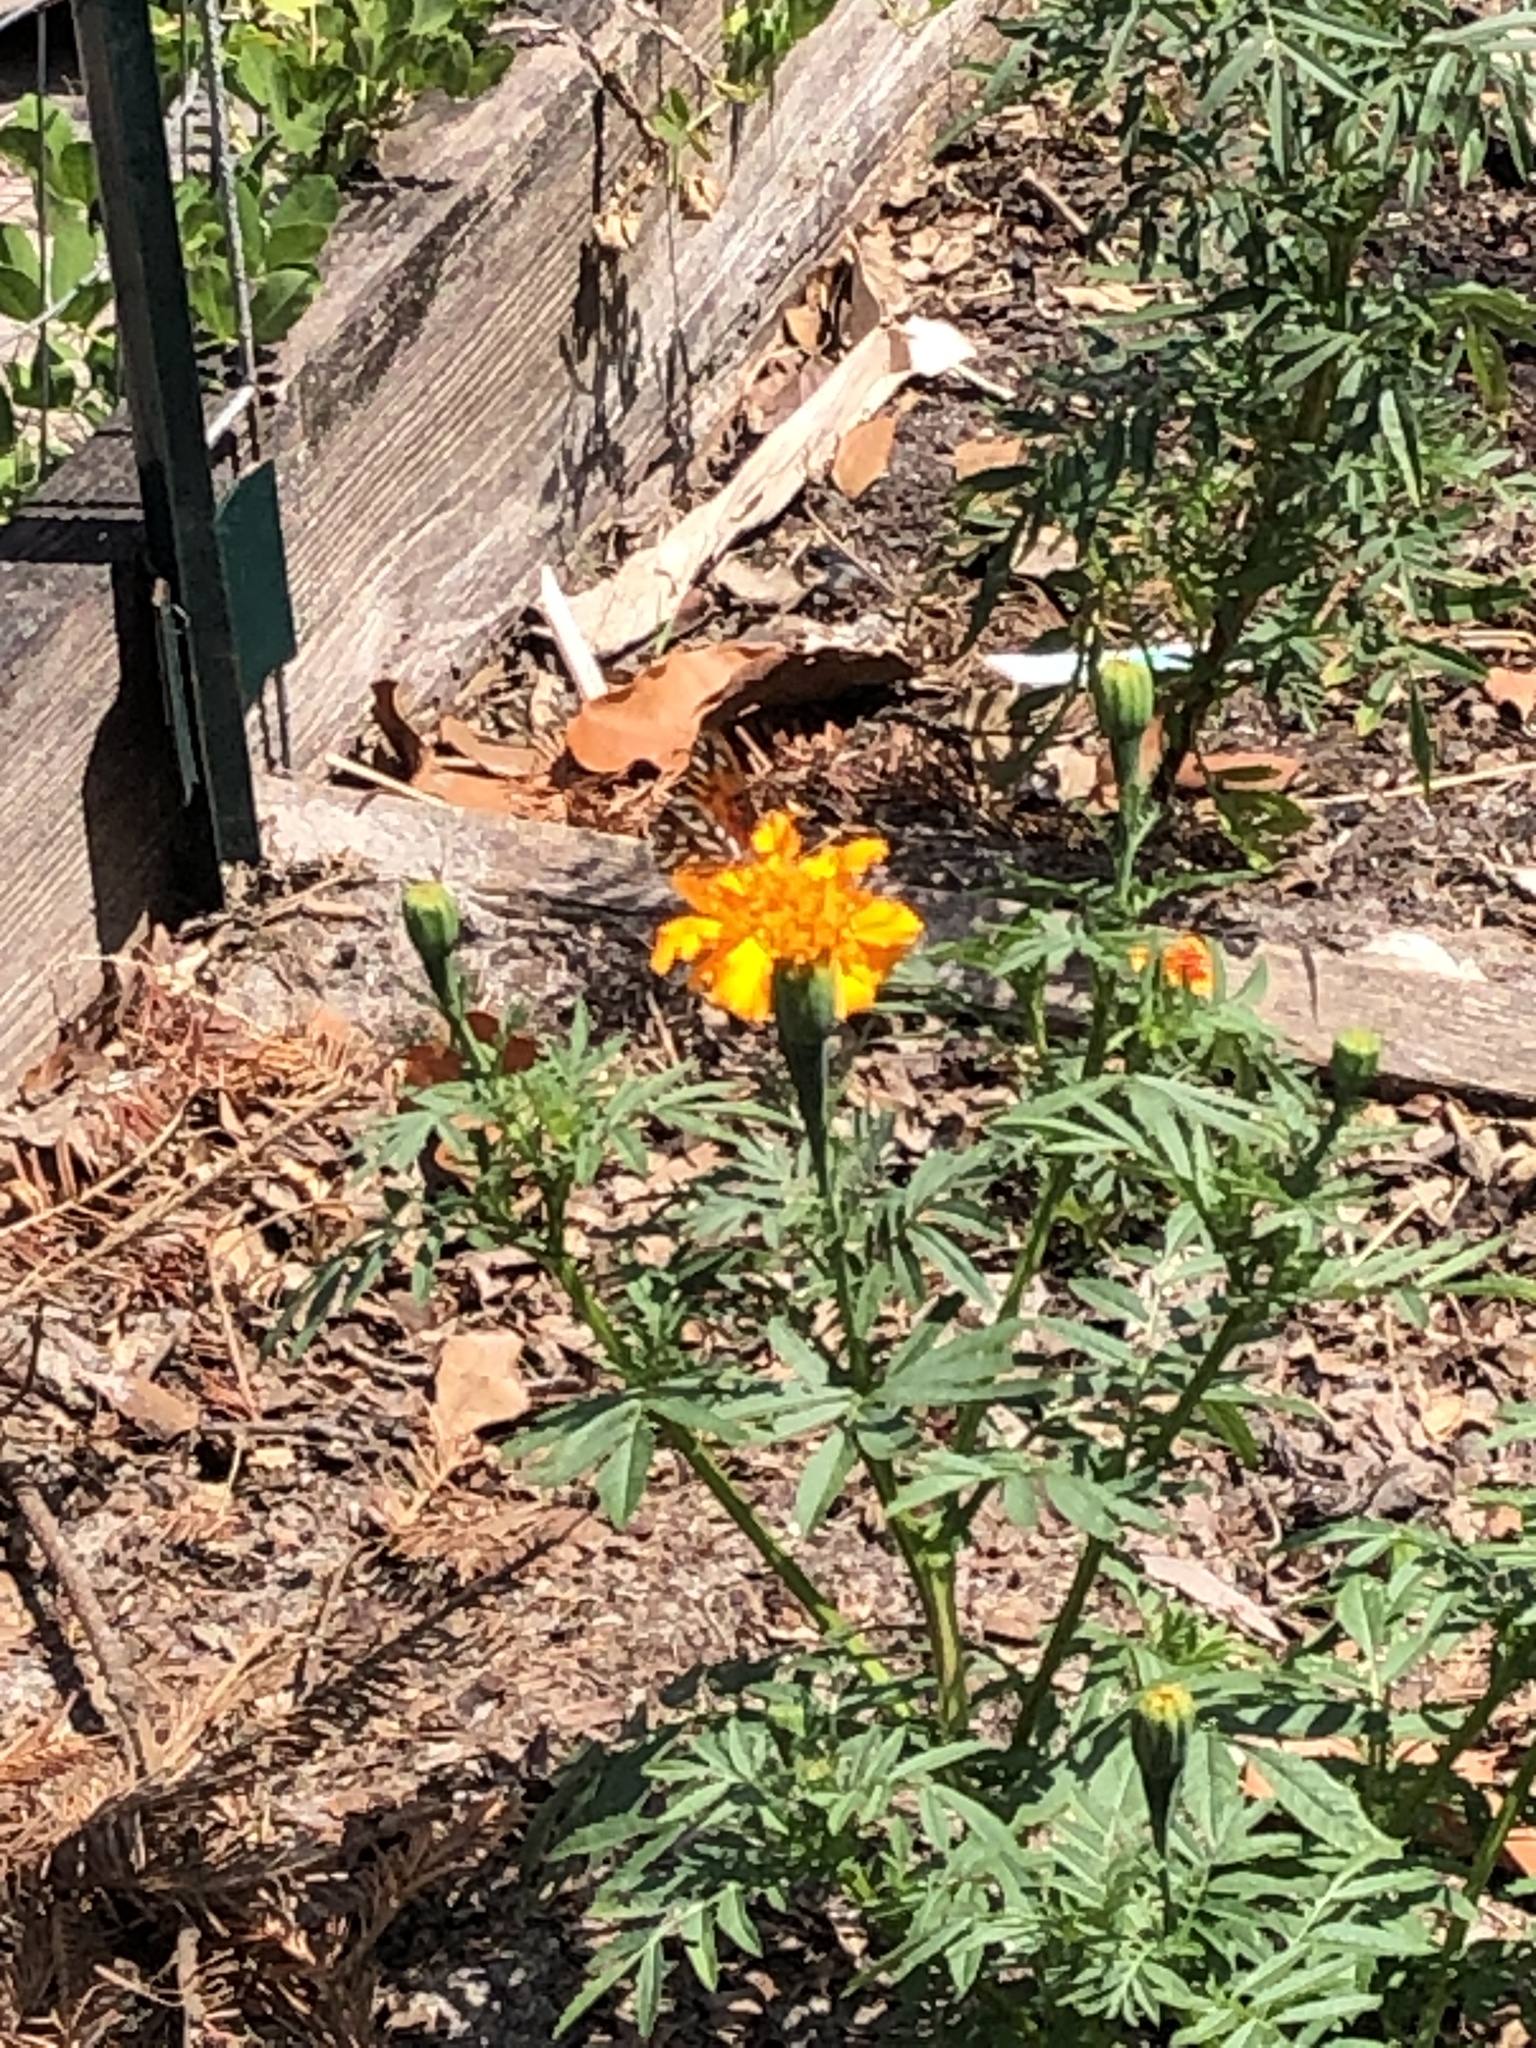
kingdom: Animalia
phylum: Arthropoda
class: Insecta
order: Lepidoptera
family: Nymphalidae
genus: Dione
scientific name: Dione vanillae
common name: Gulf fritillary
